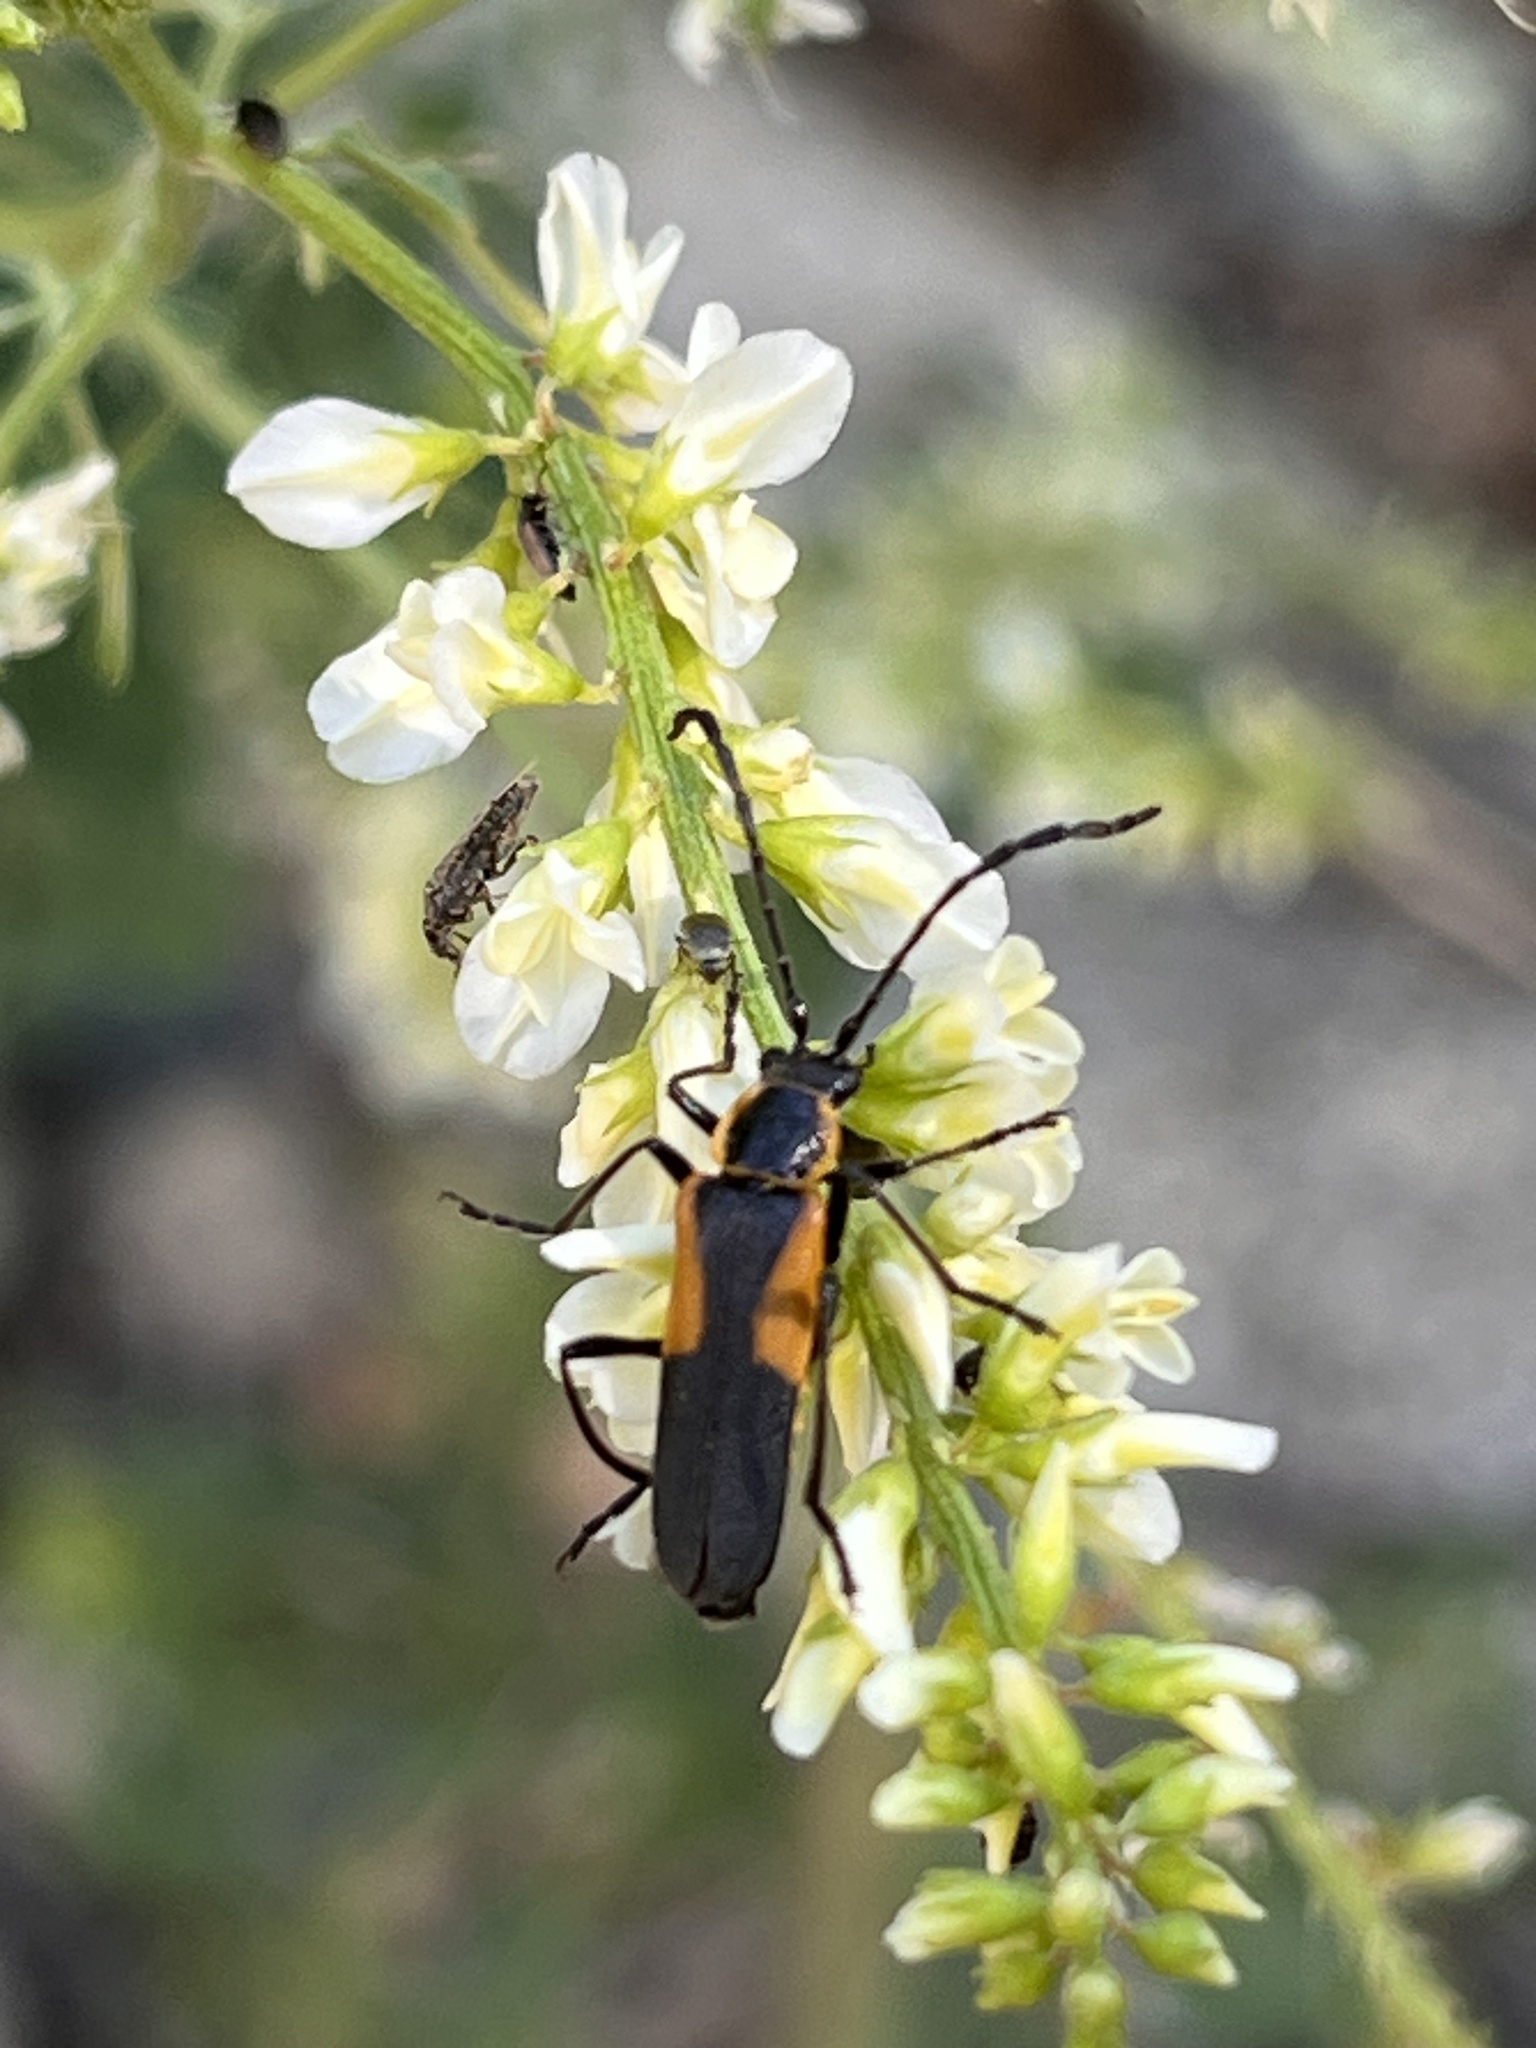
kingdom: Plantae
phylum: Tracheophyta
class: Magnoliopsida
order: Fabales
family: Fabaceae
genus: Melilotus
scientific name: Melilotus albus
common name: White melilot
